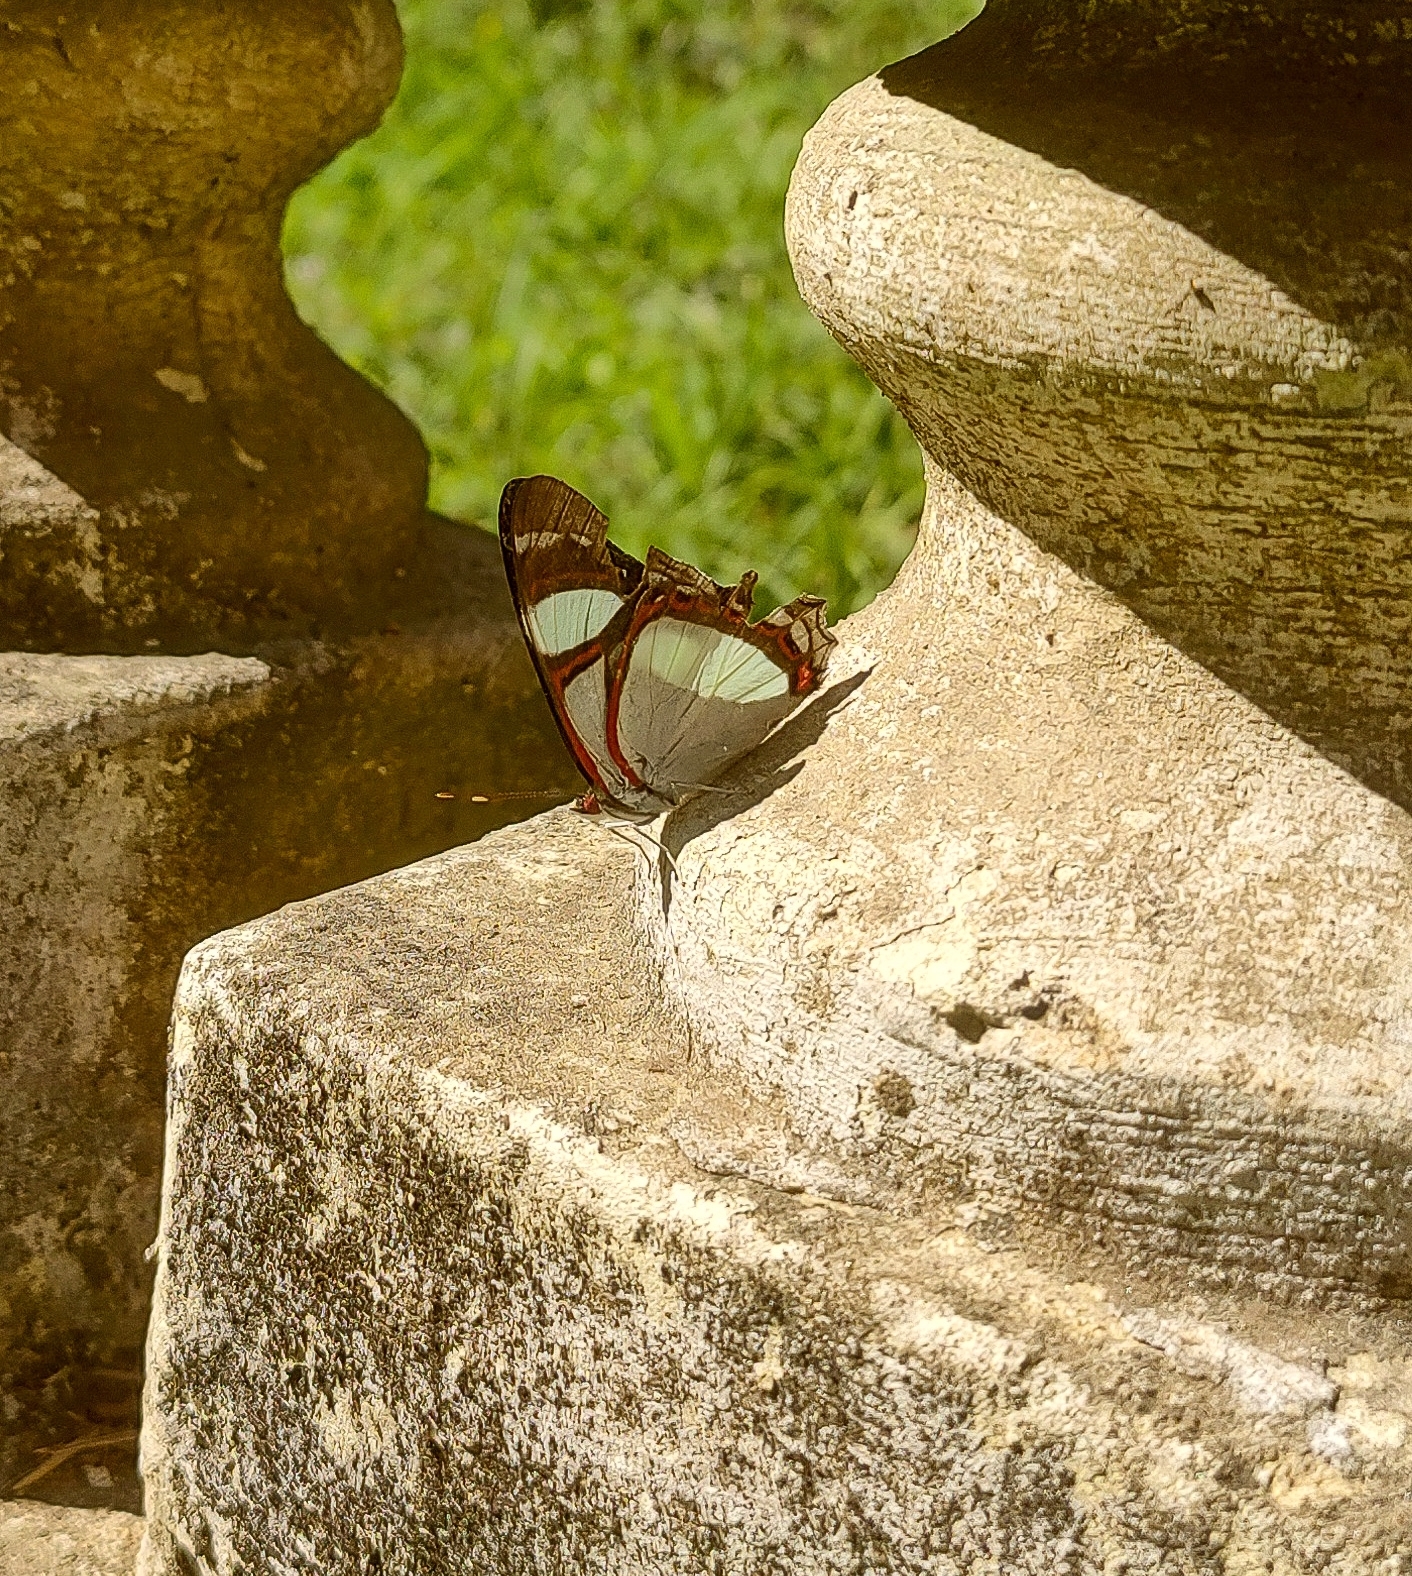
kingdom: Animalia
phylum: Arthropoda
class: Insecta
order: Lepidoptera
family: Nymphalidae
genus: Pyrrhogyra
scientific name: Pyrrhogyra neaerea
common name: Leading red-ring
